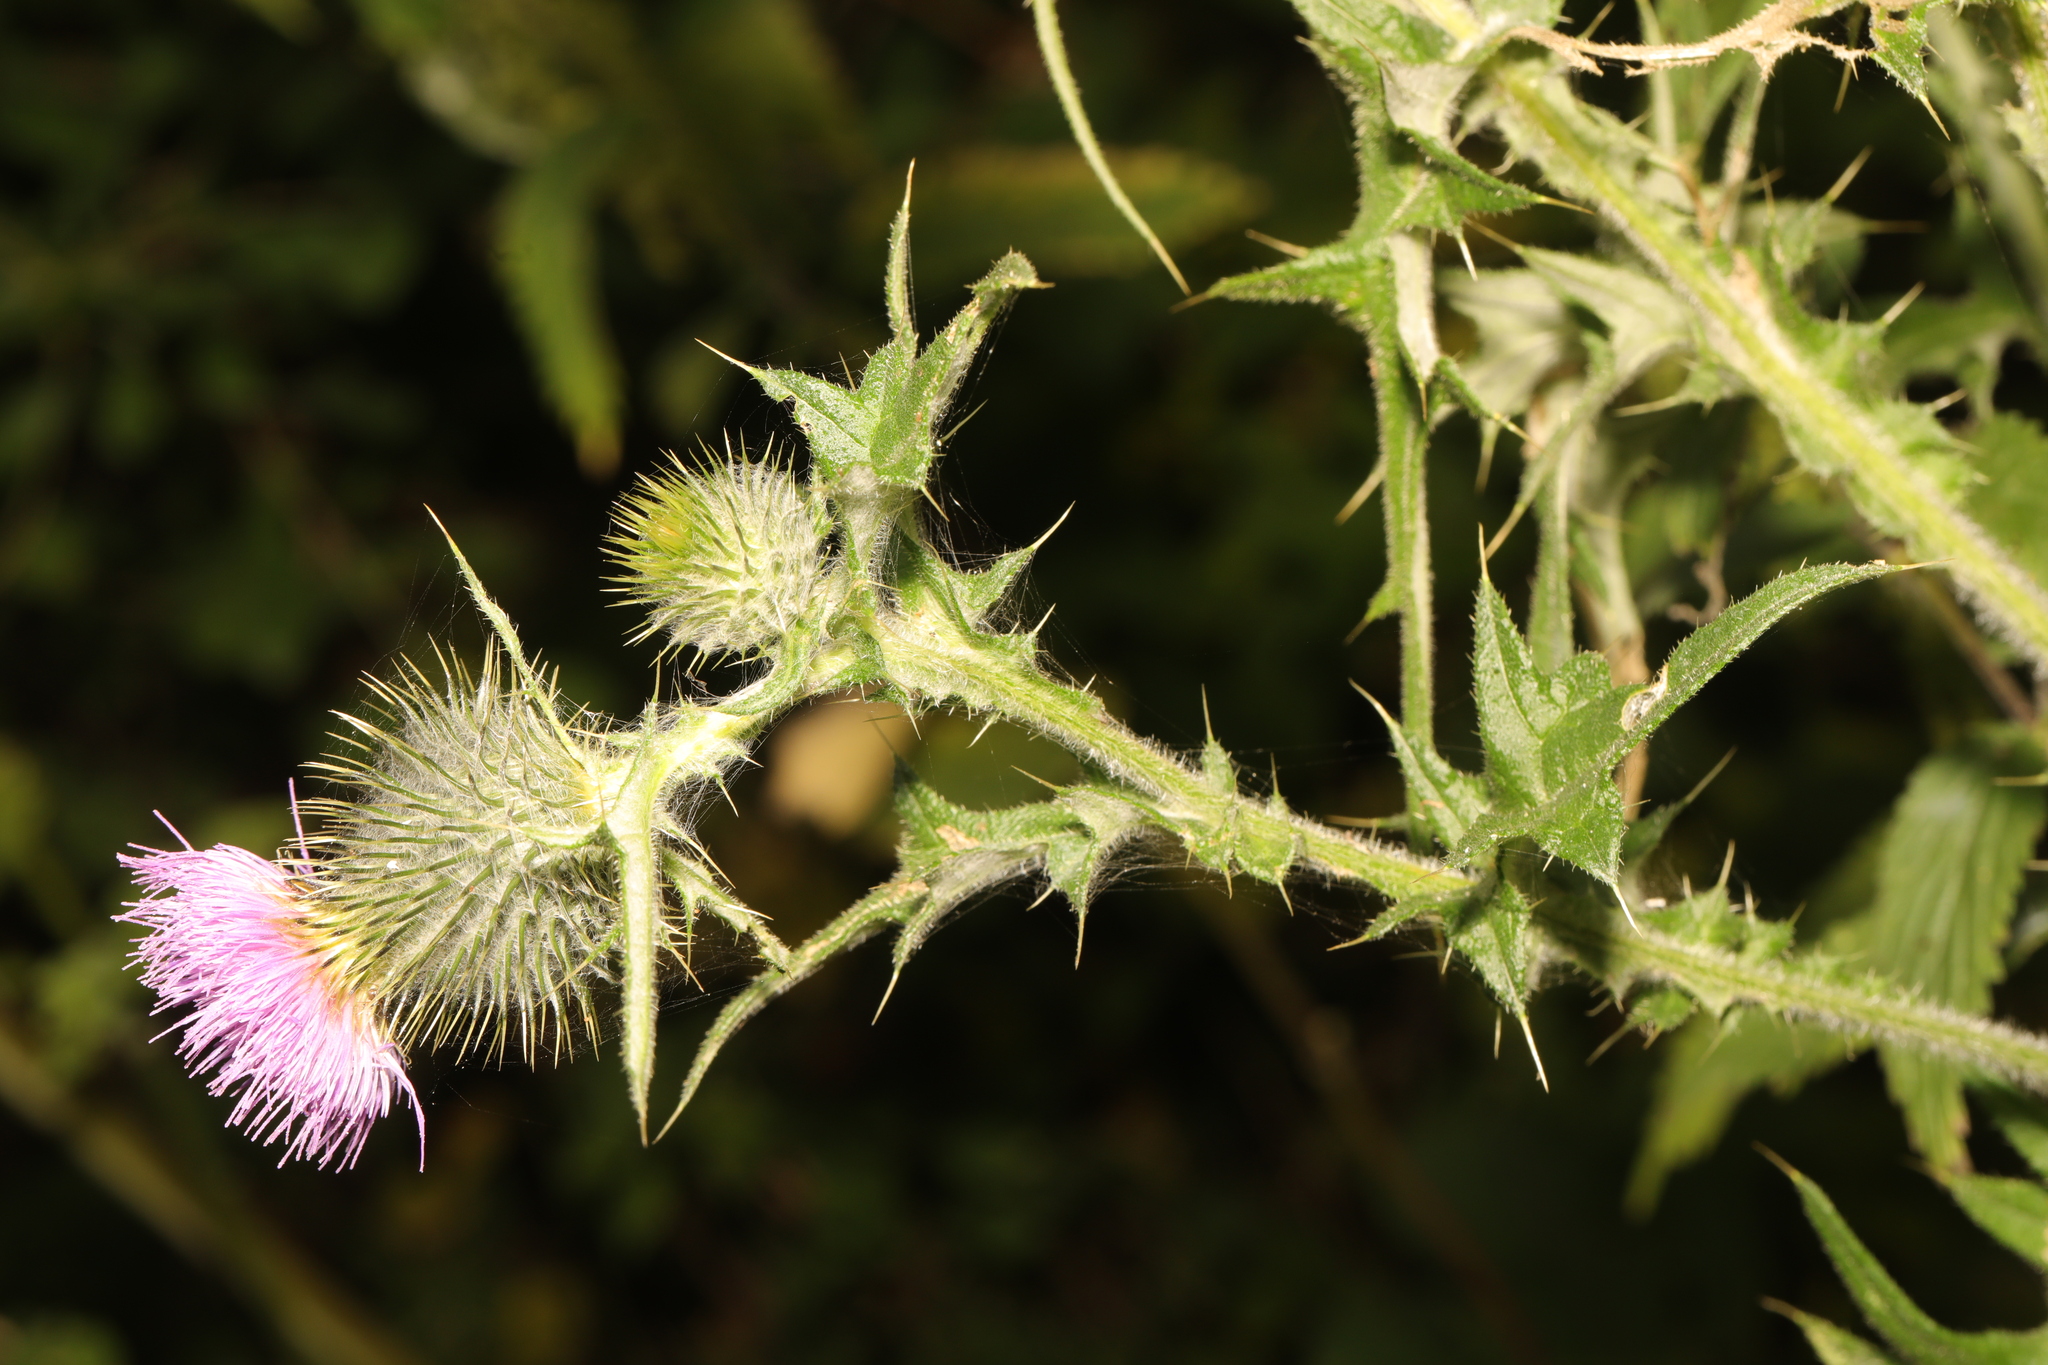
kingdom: Plantae
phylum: Tracheophyta
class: Magnoliopsida
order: Asterales
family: Asteraceae
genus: Cirsium
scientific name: Cirsium vulgare
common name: Bull thistle
